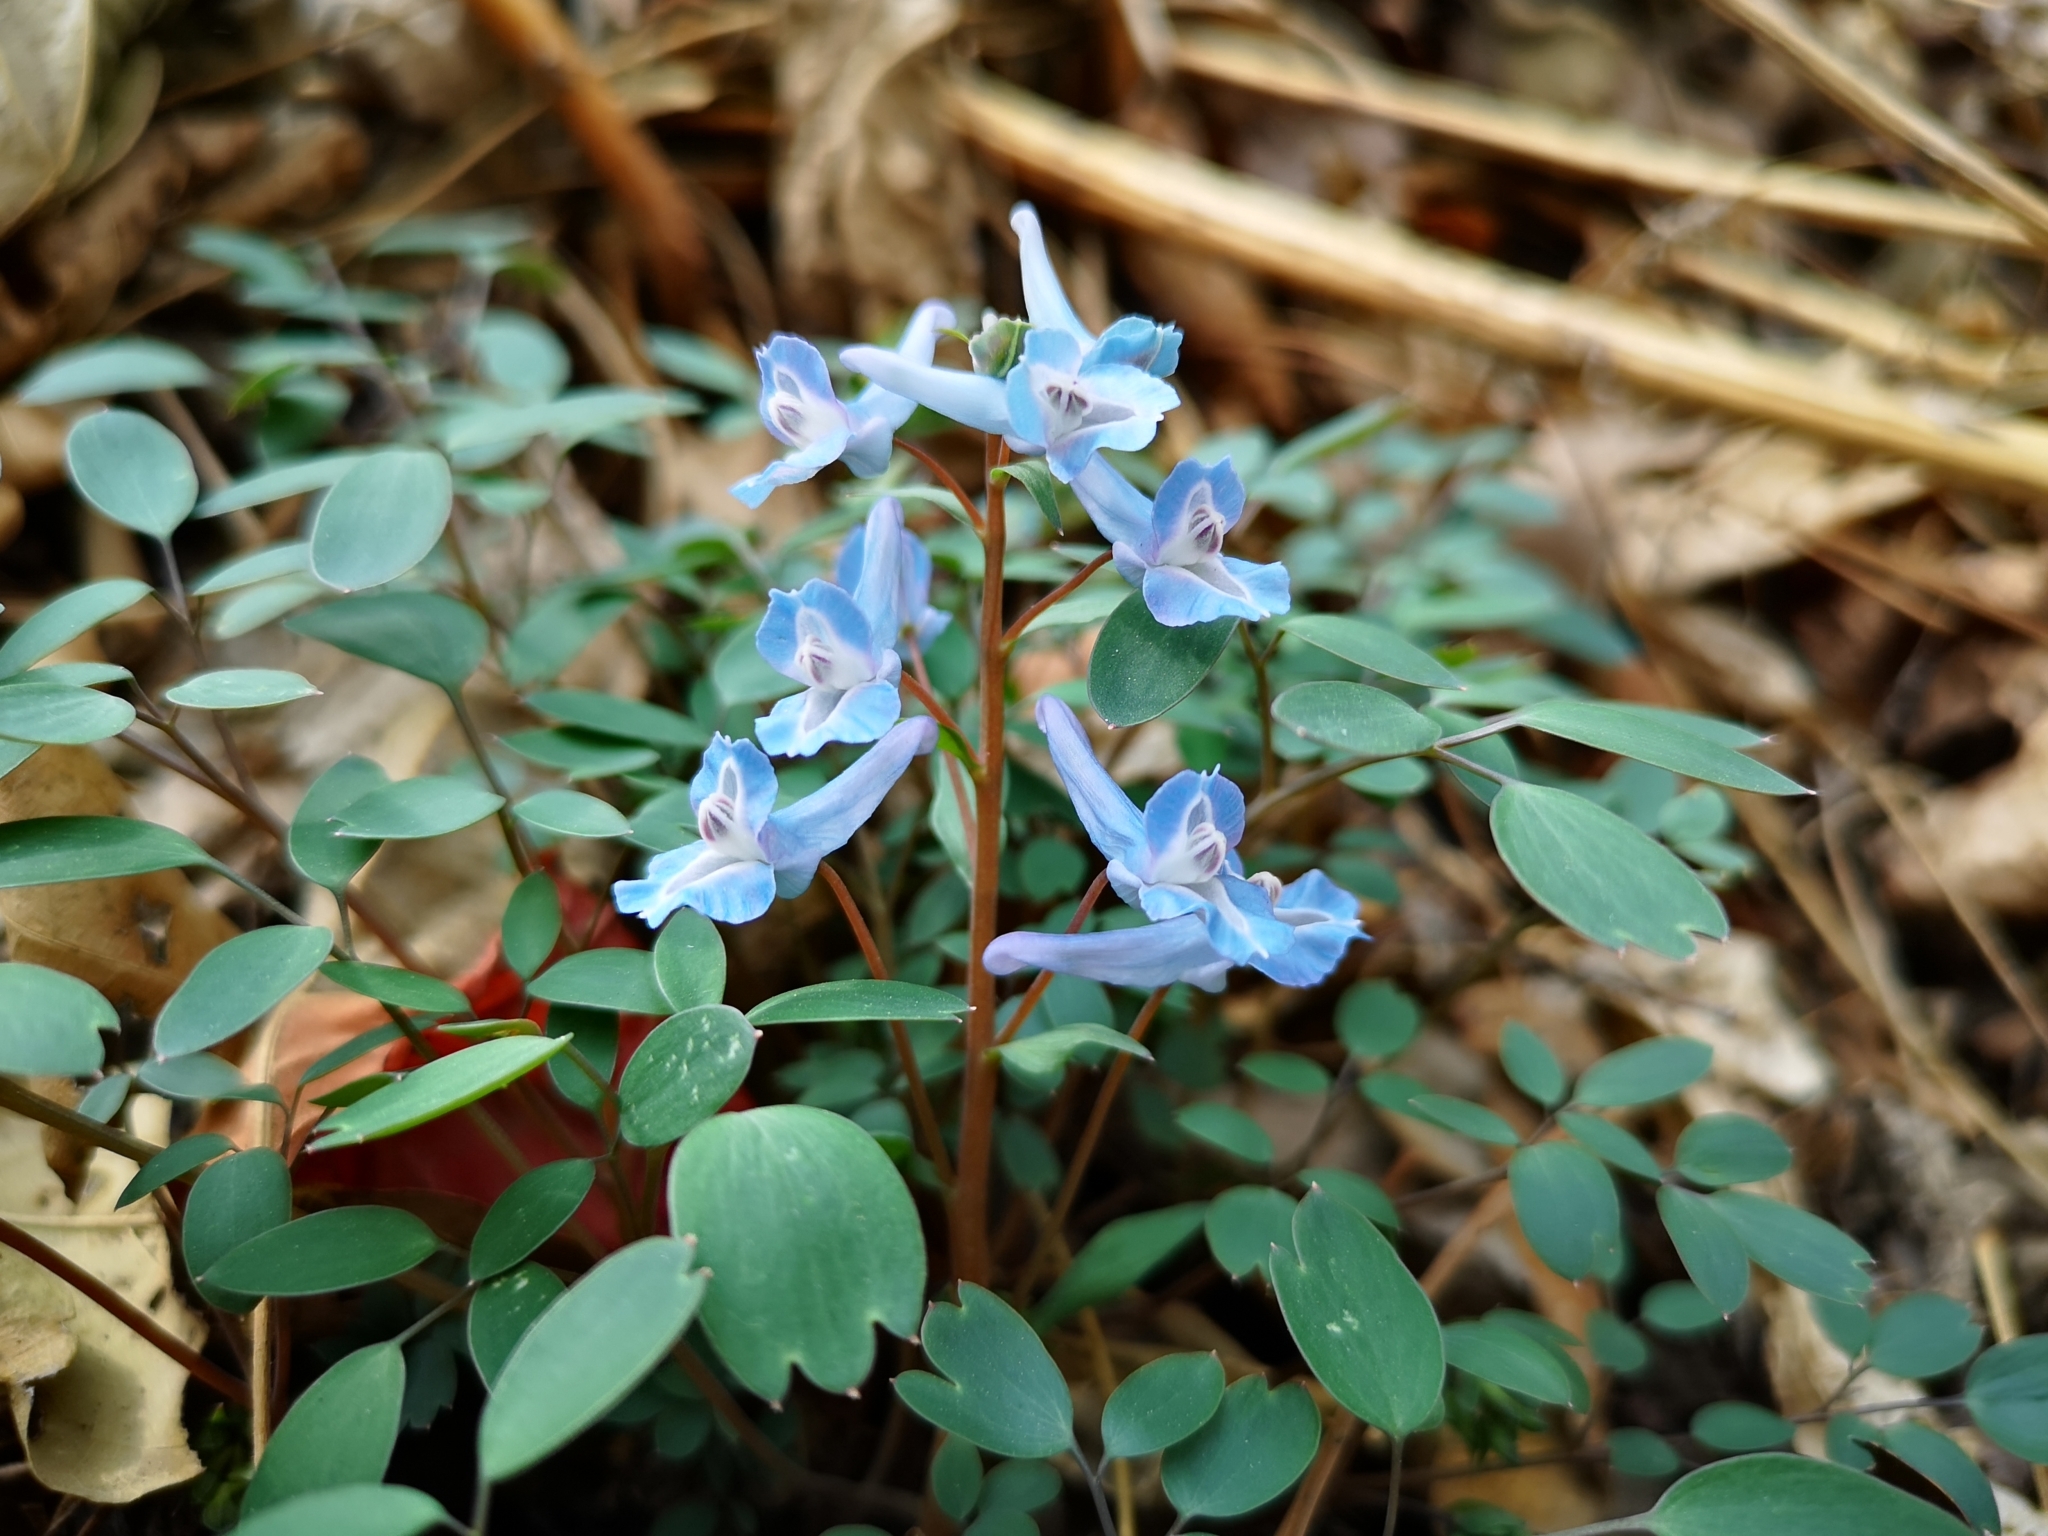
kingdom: Plantae
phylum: Tracheophyta
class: Magnoliopsida
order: Ranunculales
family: Papaveraceae
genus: Corydalis
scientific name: Corydalis caudata
